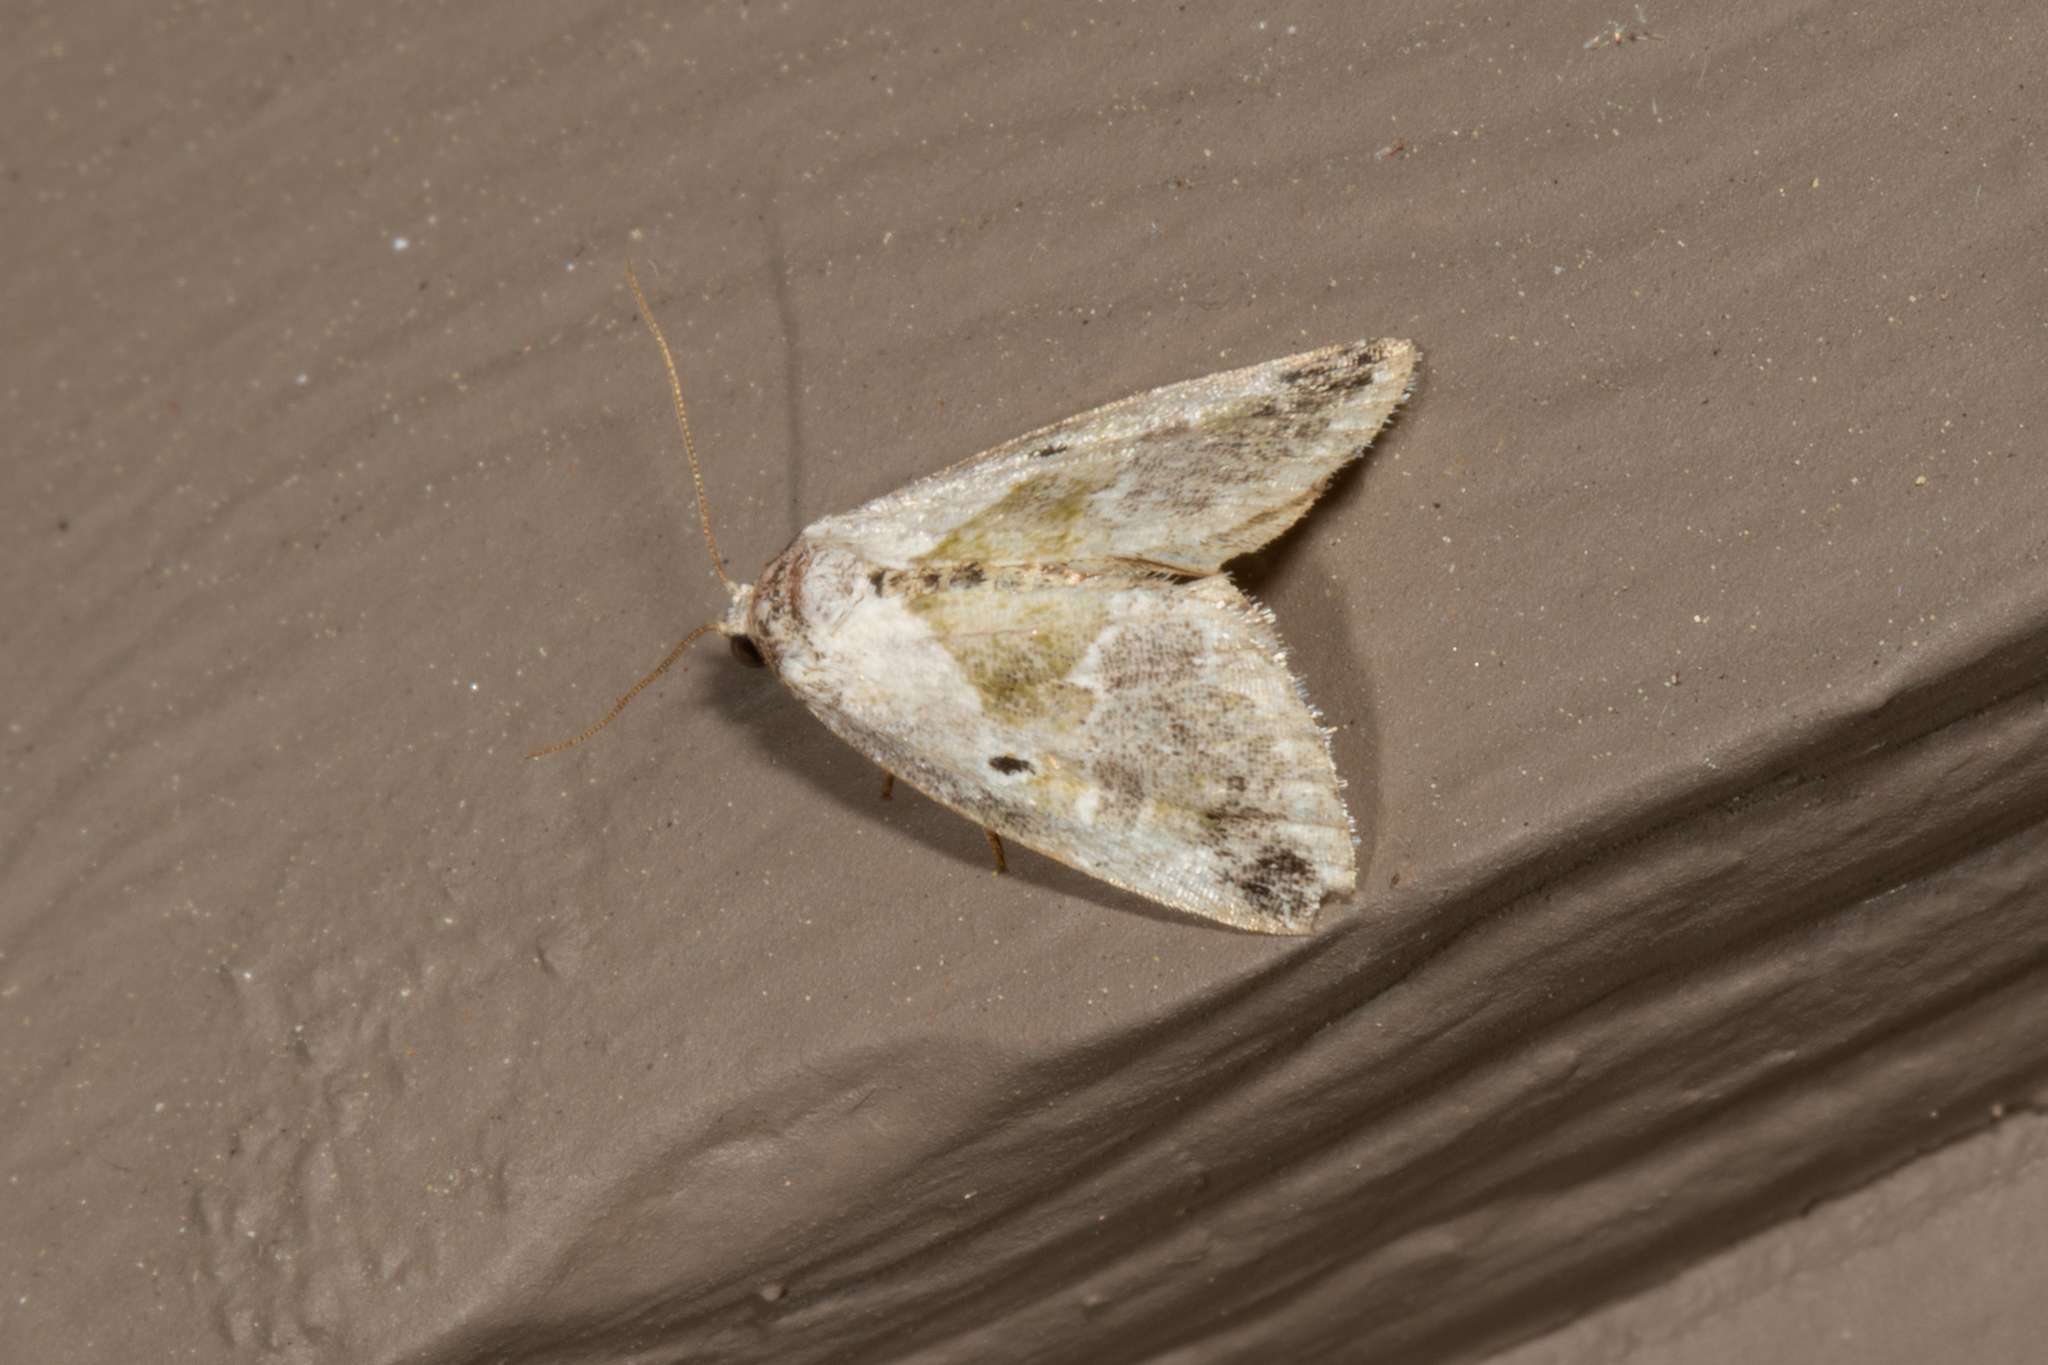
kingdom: Animalia
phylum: Arthropoda
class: Insecta
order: Lepidoptera
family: Noctuidae
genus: Maliattha
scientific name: Maliattha synochitis
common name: Black-dotted glyph
